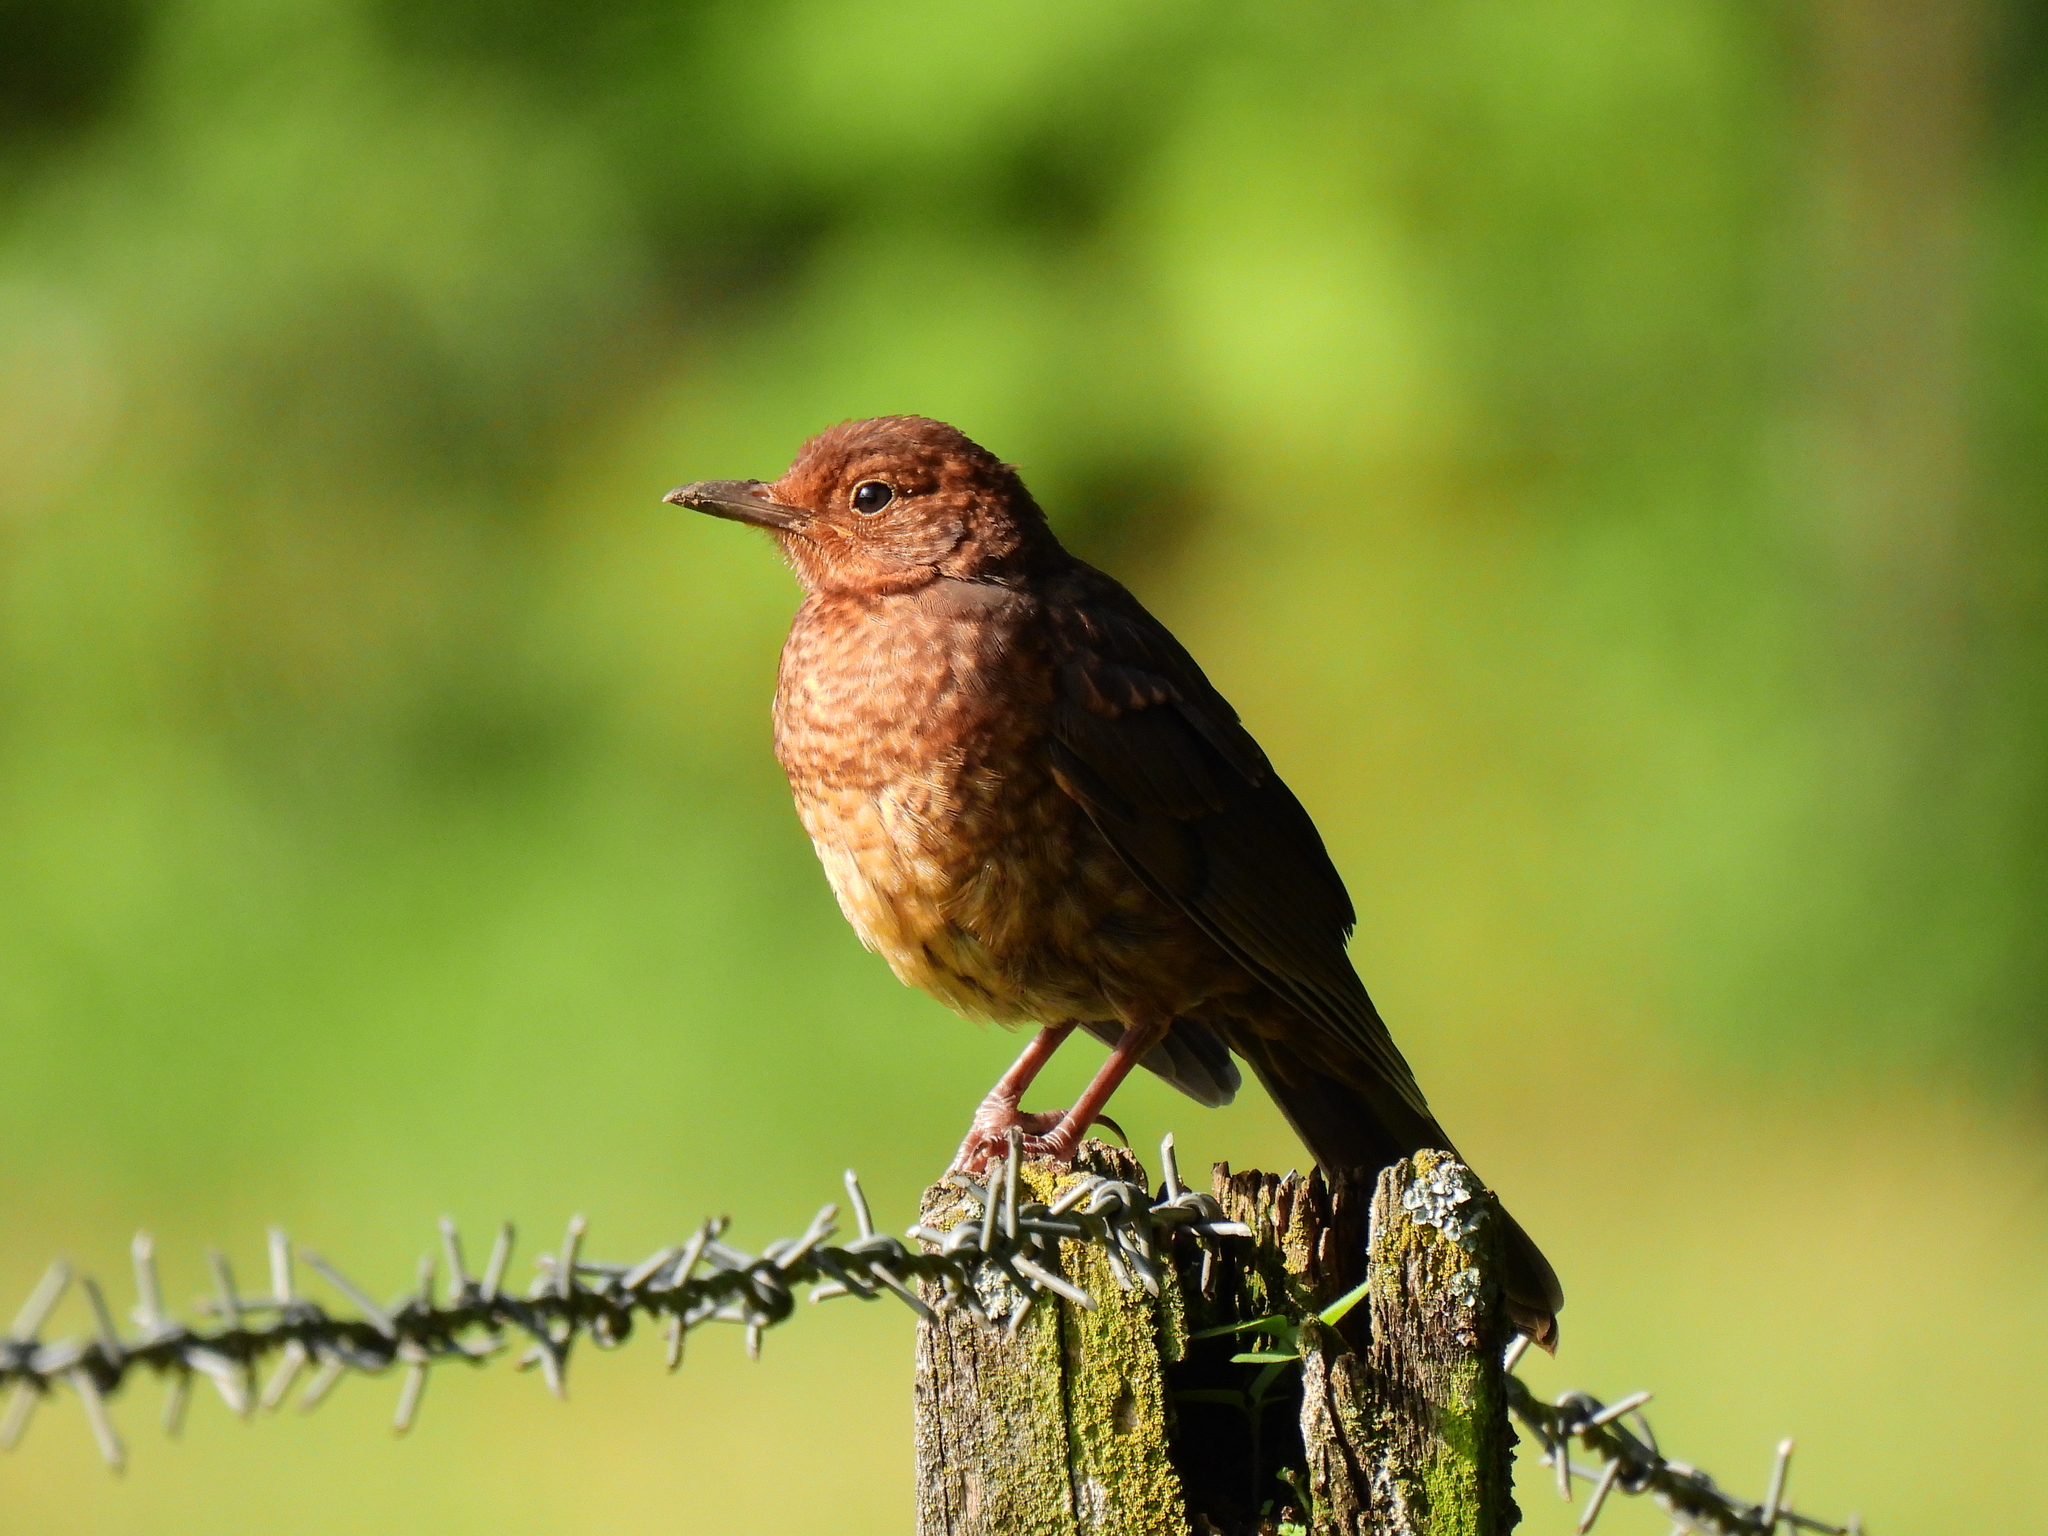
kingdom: Animalia
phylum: Chordata
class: Aves
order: Passeriformes
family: Turdidae
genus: Turdus
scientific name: Turdus merula
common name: Common blackbird
